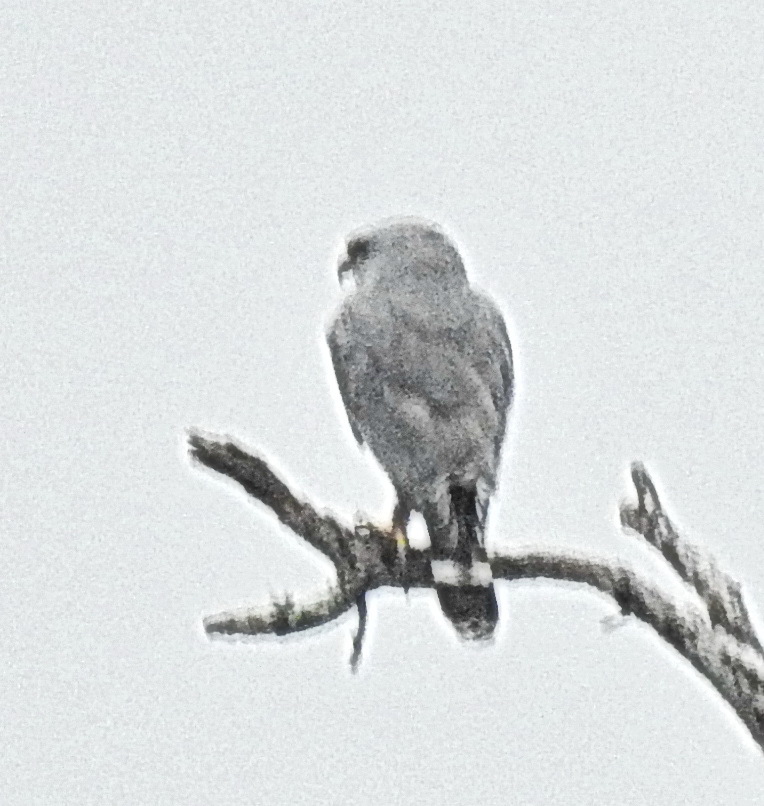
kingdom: Animalia
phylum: Chordata
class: Aves
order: Accipitriformes
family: Accipitridae
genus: Buteo
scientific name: Buteo nitidus
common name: Grey-lined hawk
